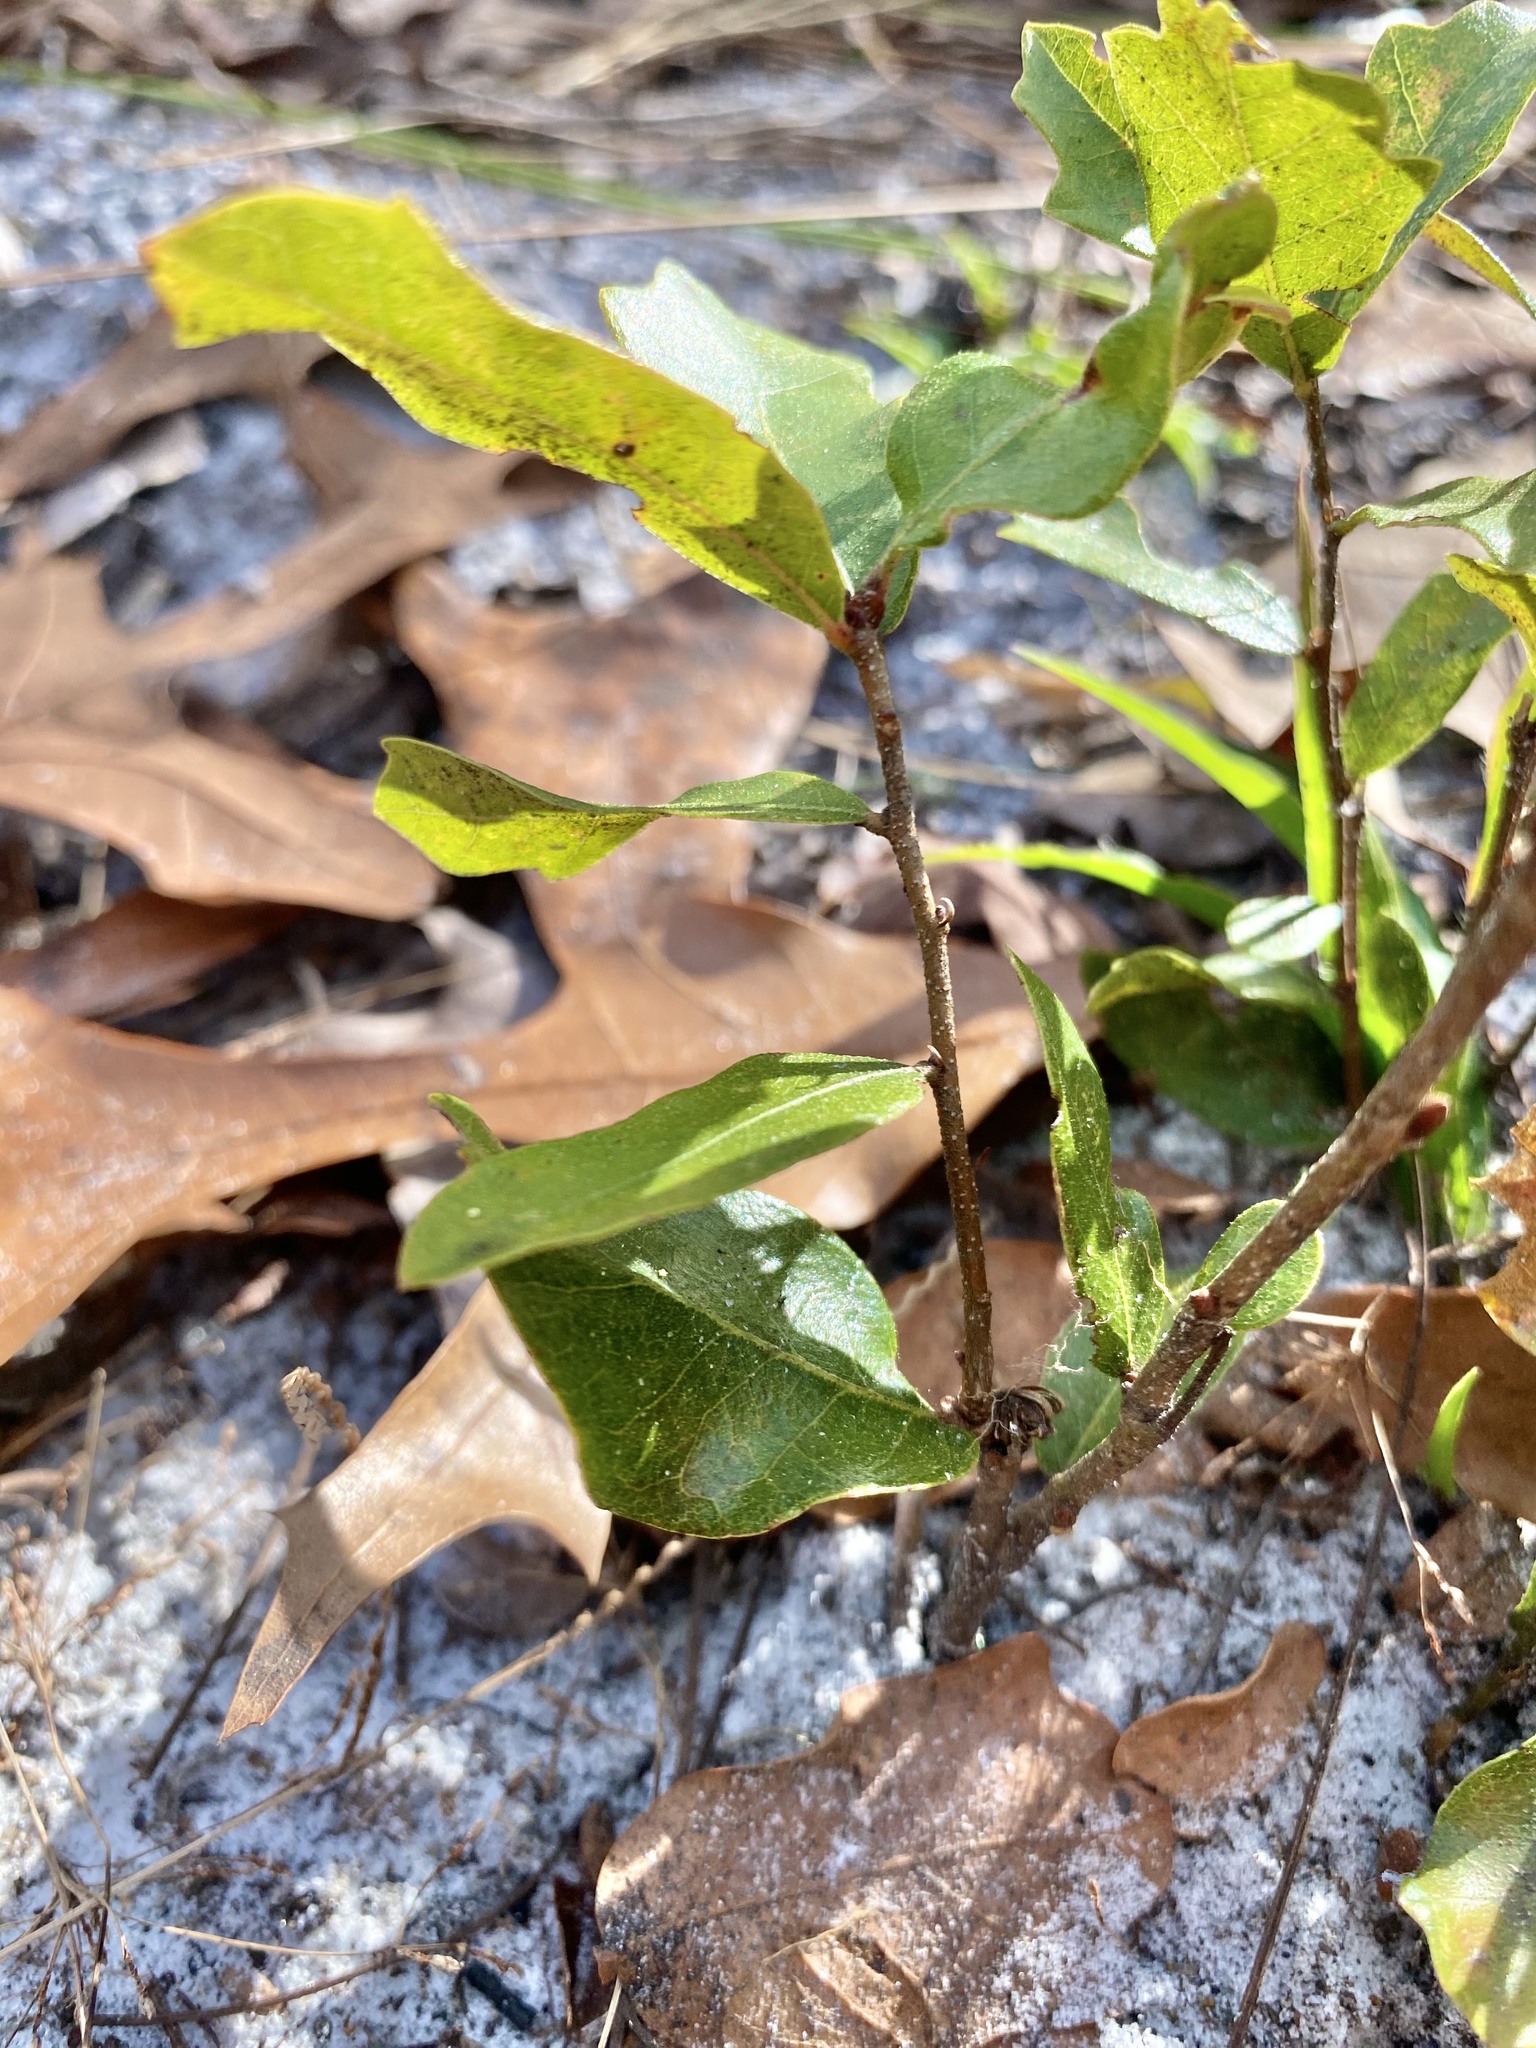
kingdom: Plantae
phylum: Tracheophyta
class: Magnoliopsida
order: Fagales
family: Fagaceae
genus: Quercus
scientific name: Quercus minima
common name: Dwarf live oak
